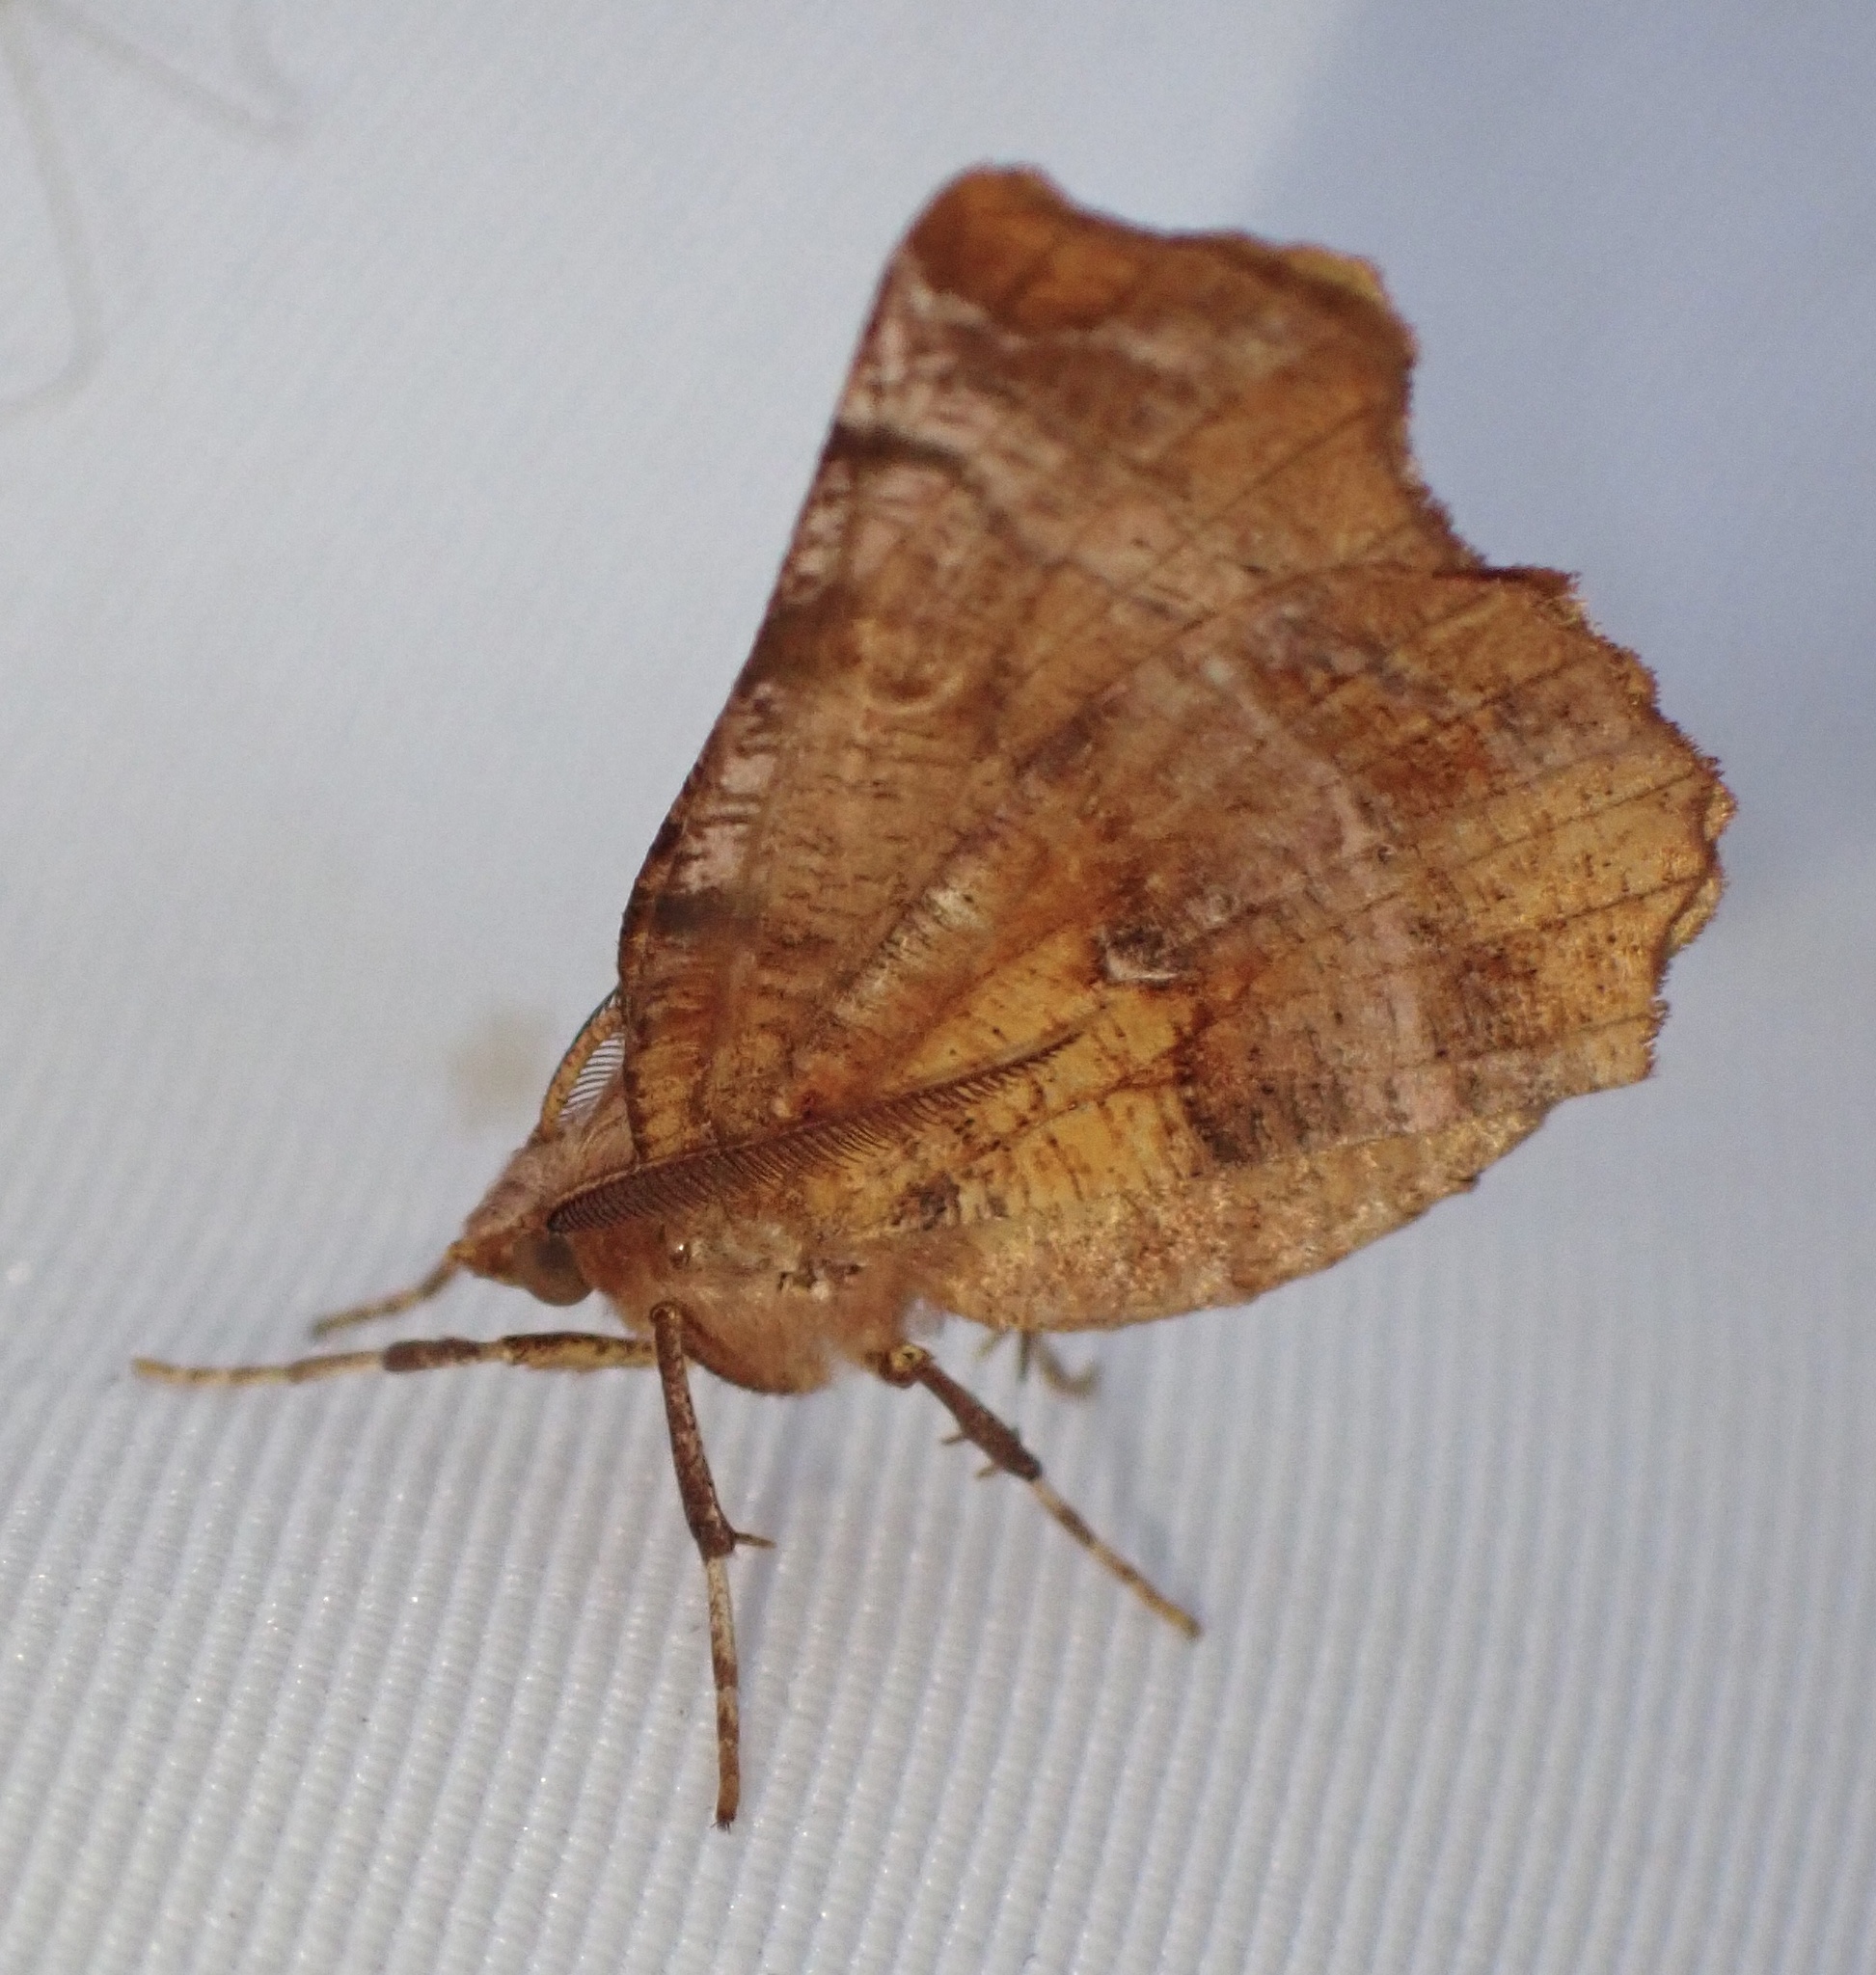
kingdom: Animalia
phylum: Arthropoda
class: Insecta
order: Lepidoptera
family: Geometridae
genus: Selenia
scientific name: Selenia dentaria
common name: Early thorn
